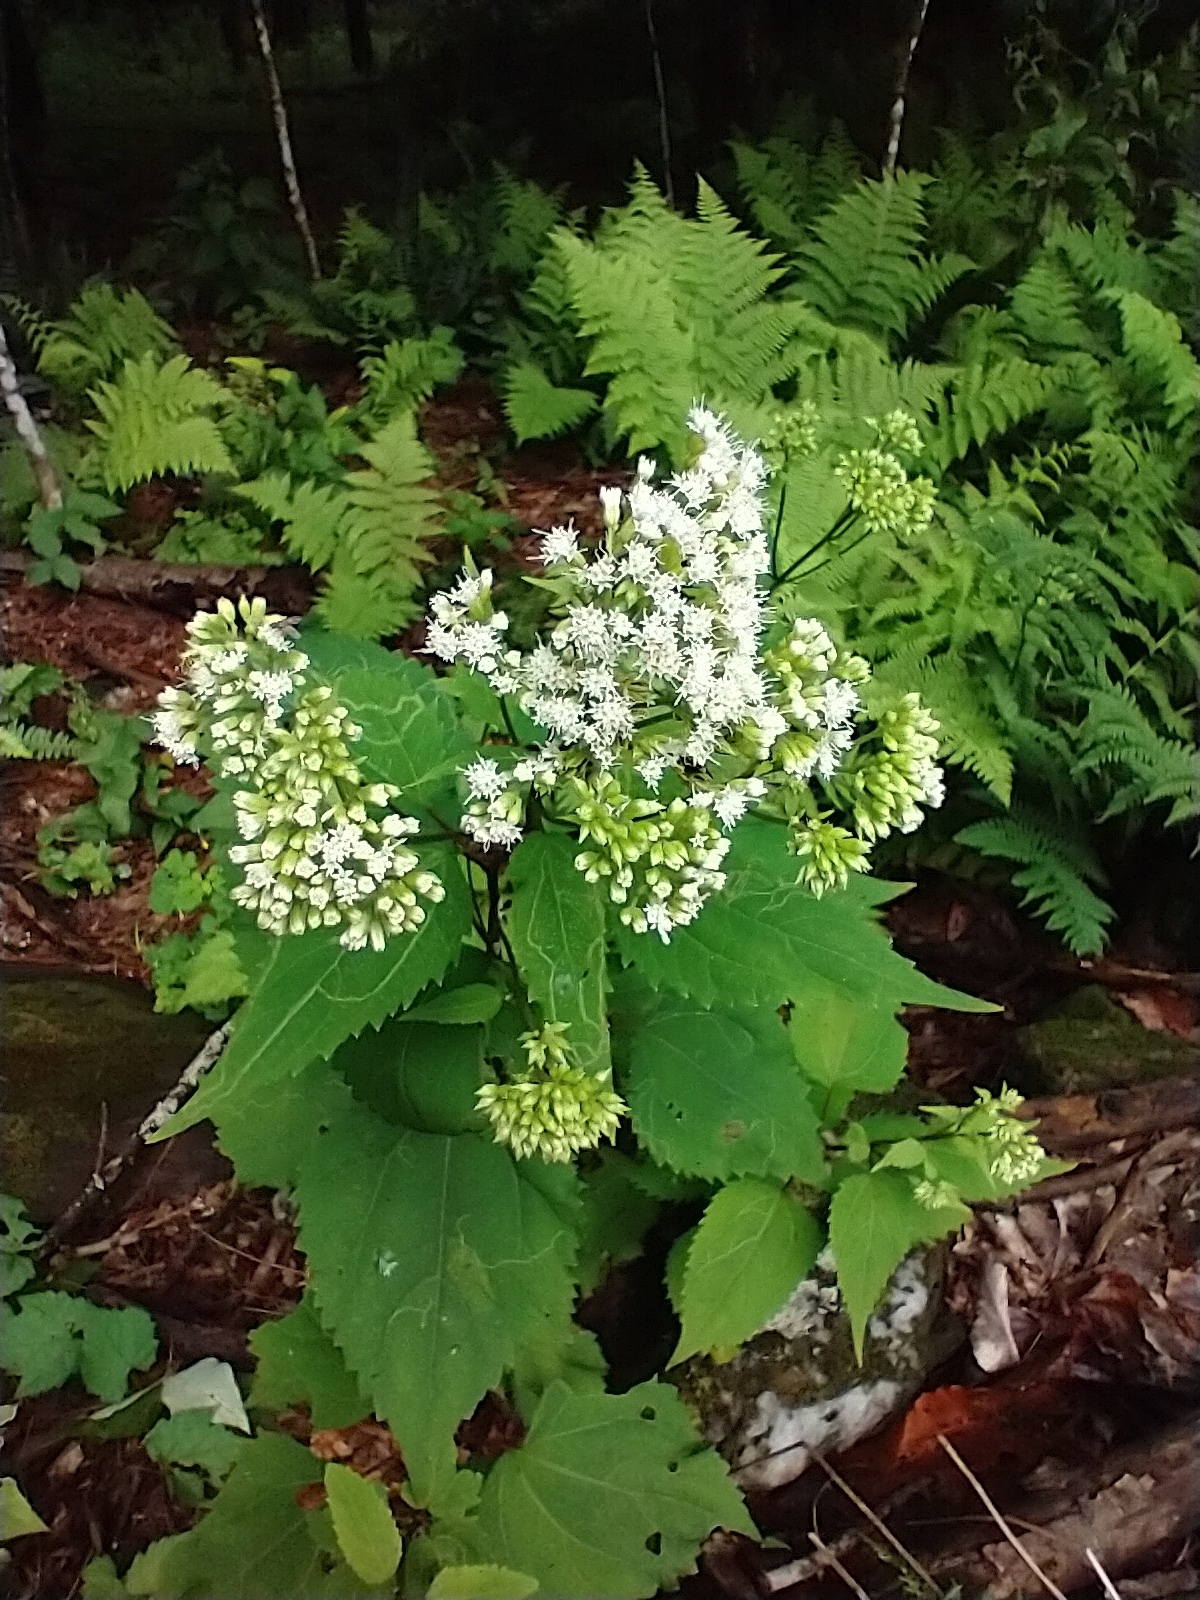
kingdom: Plantae
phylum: Tracheophyta
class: Magnoliopsida
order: Asterales
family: Asteraceae
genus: Ageratina
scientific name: Ageratina altissima
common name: White snakeroot
